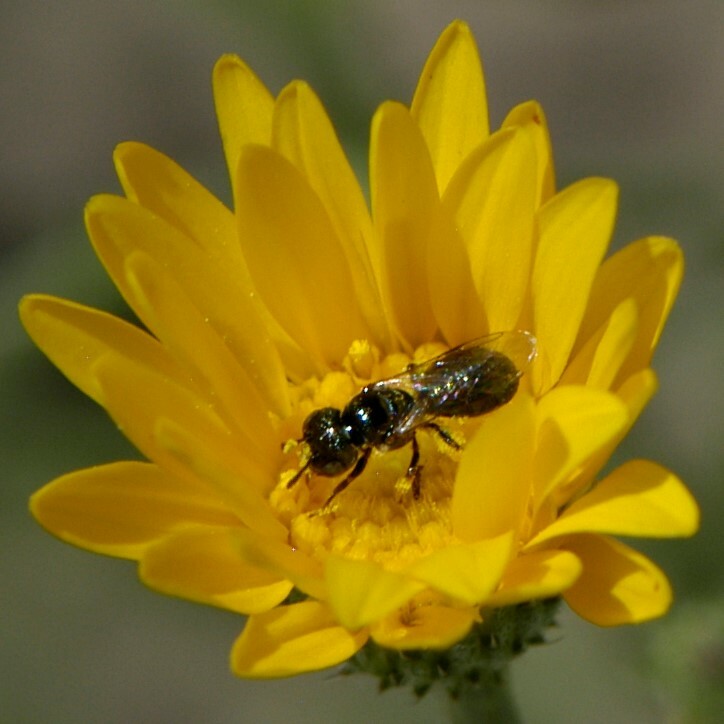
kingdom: Animalia
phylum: Arthropoda
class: Insecta
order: Hymenoptera
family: Apidae
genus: Zadontomerus
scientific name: Zadontomerus
